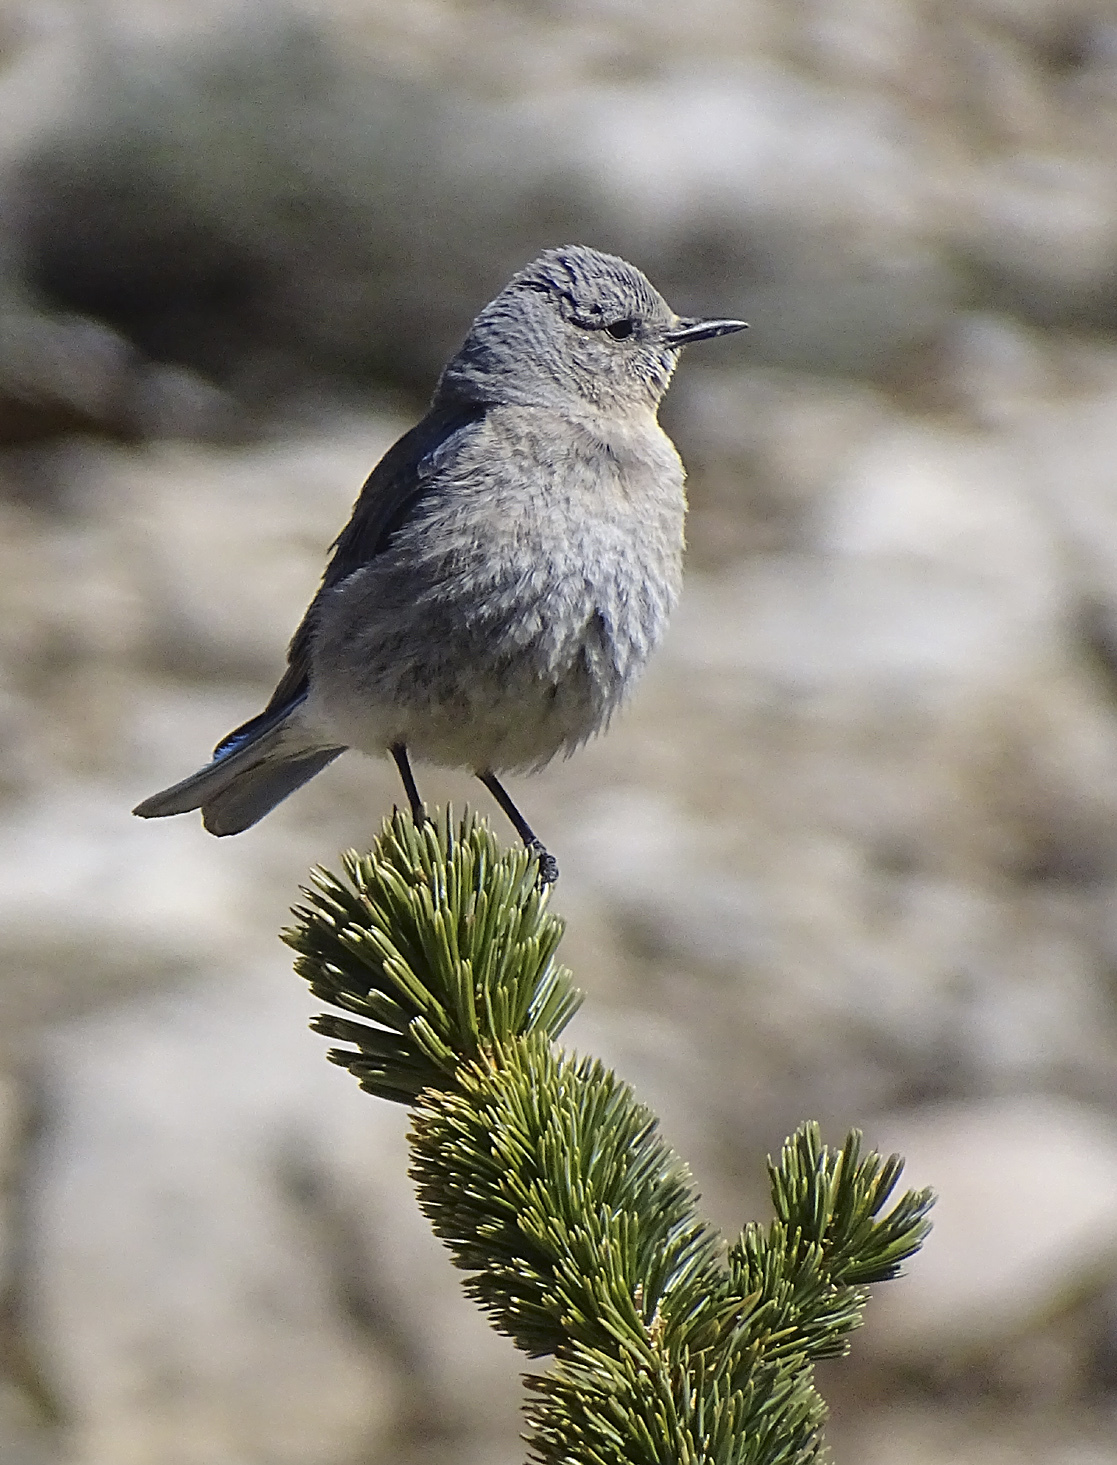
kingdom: Animalia
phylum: Chordata
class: Aves
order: Passeriformes
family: Turdidae
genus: Sialia
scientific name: Sialia currucoides
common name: Mountain bluebird
